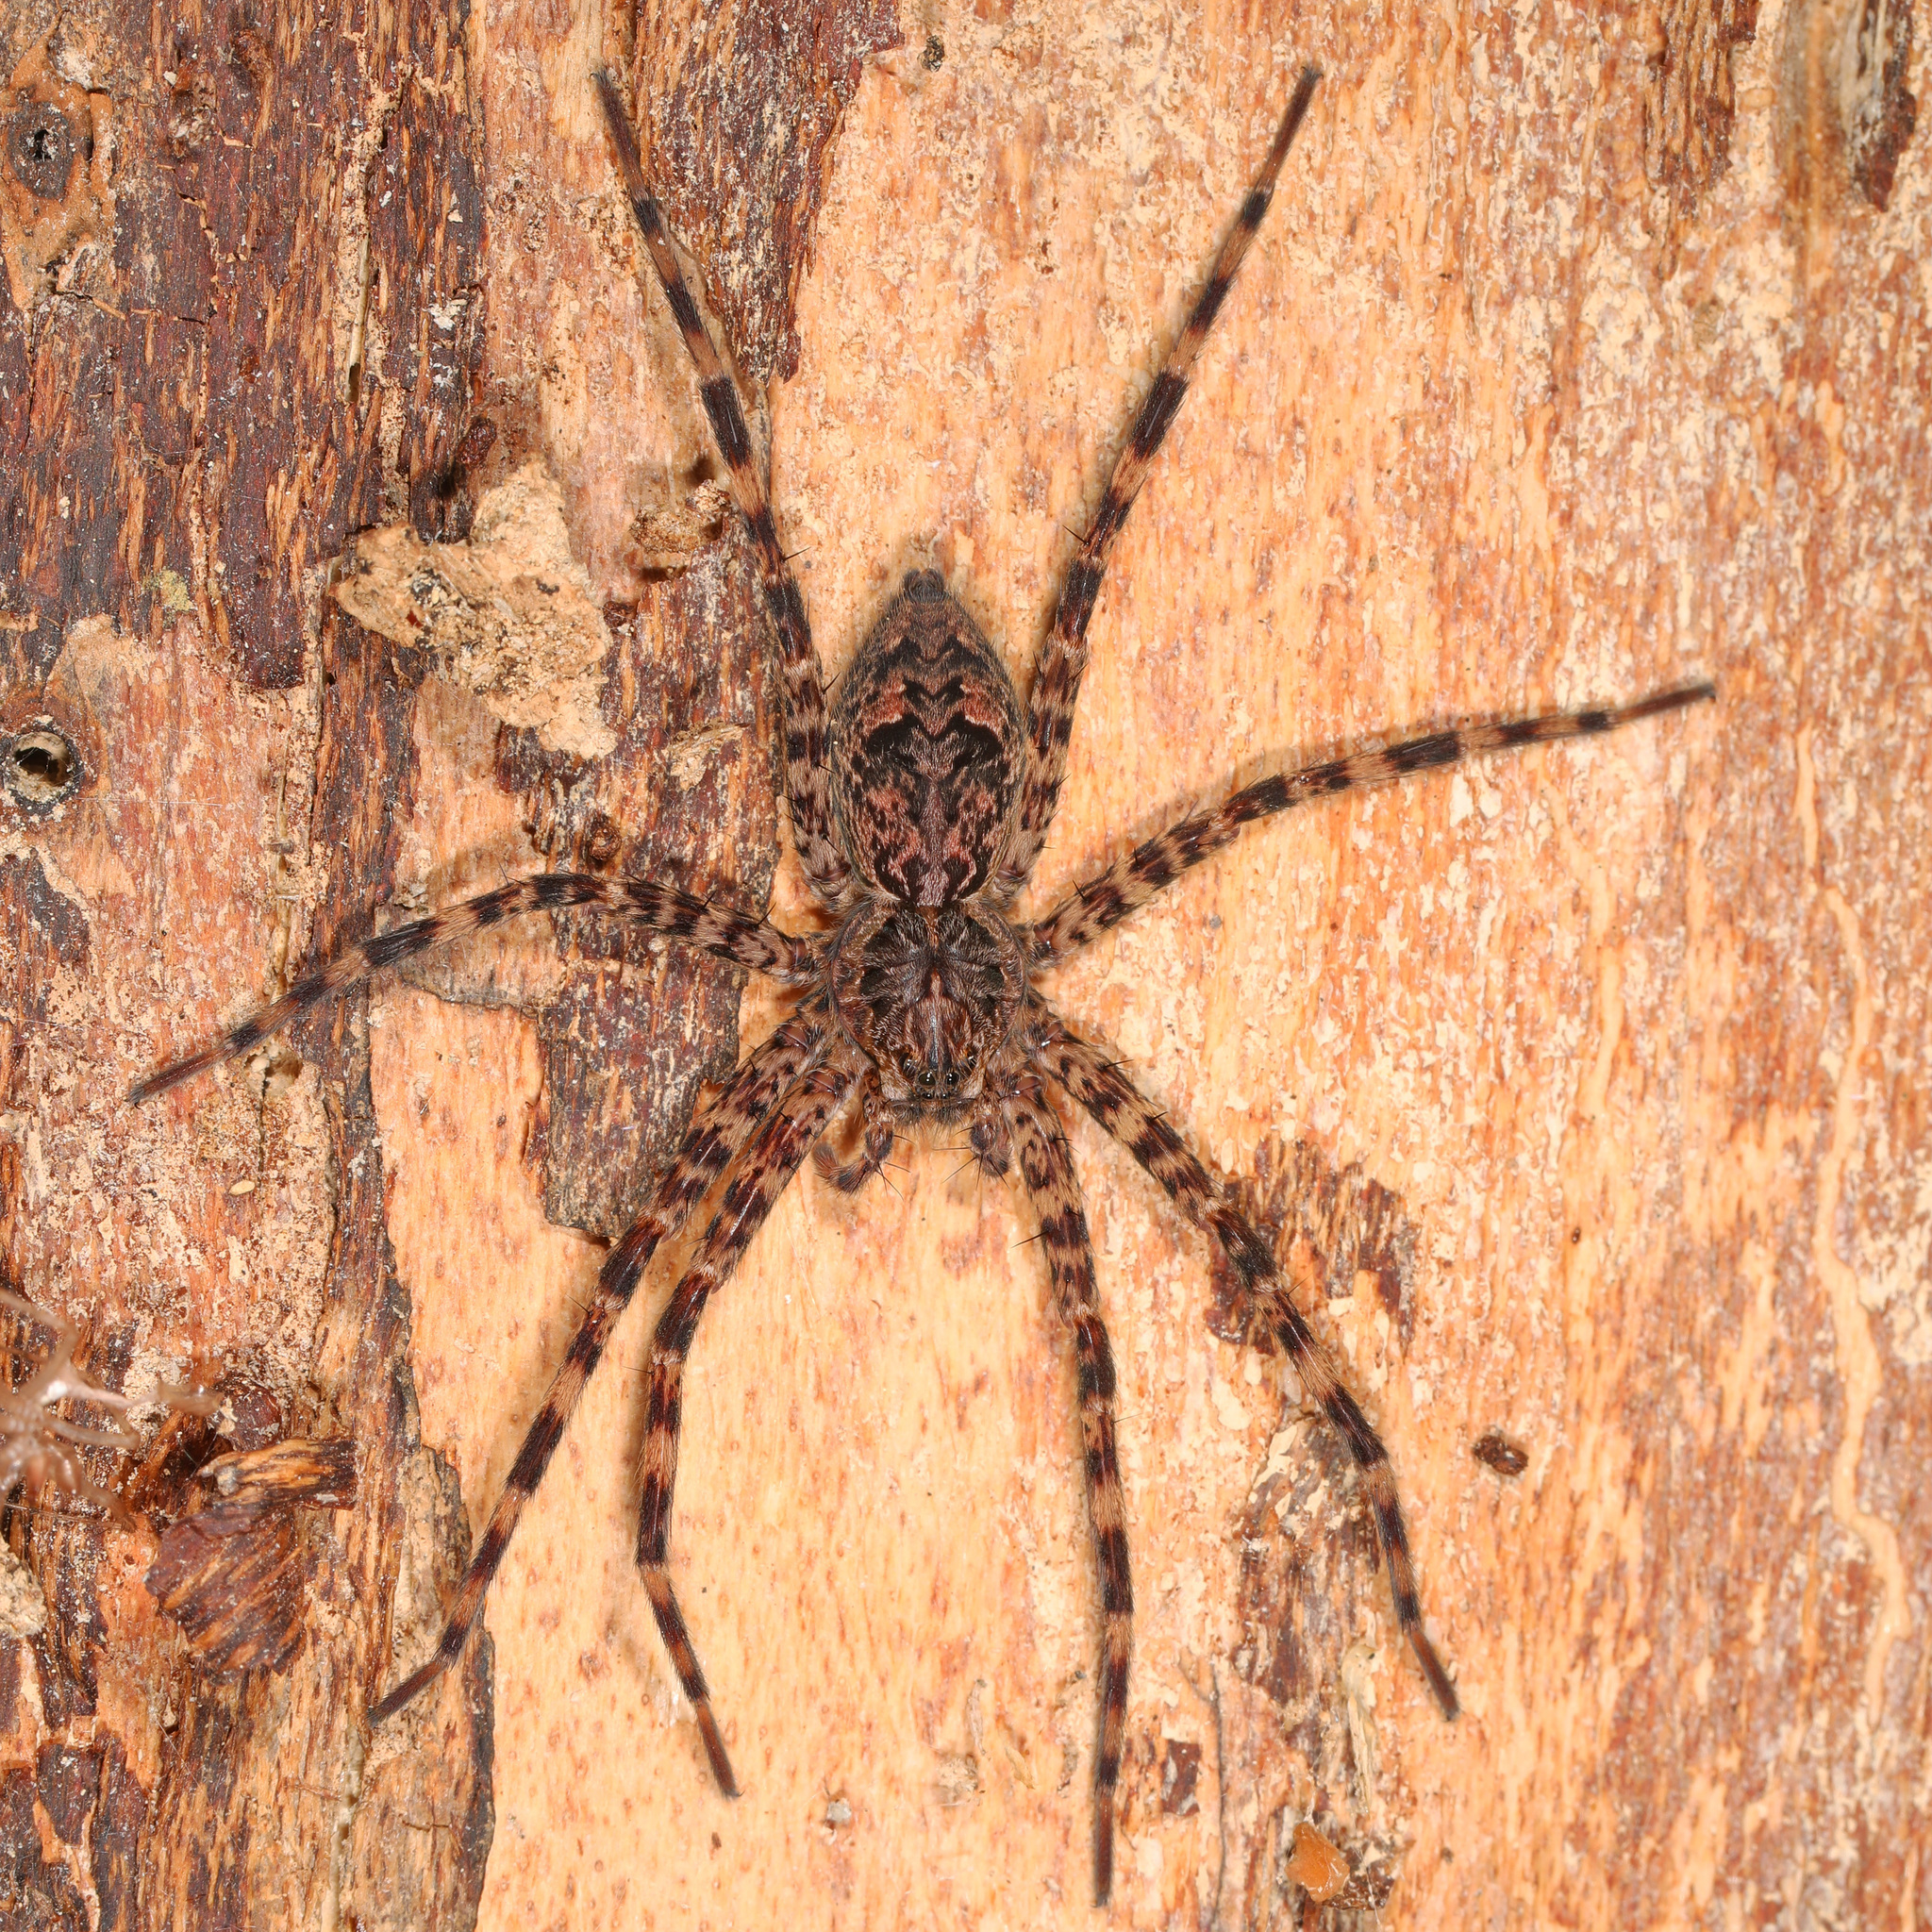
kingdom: Animalia
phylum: Arthropoda
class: Arachnida
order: Araneae
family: Pisauridae
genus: Dolomedes
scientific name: Dolomedes tenebrosus
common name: Dark fishing spider
